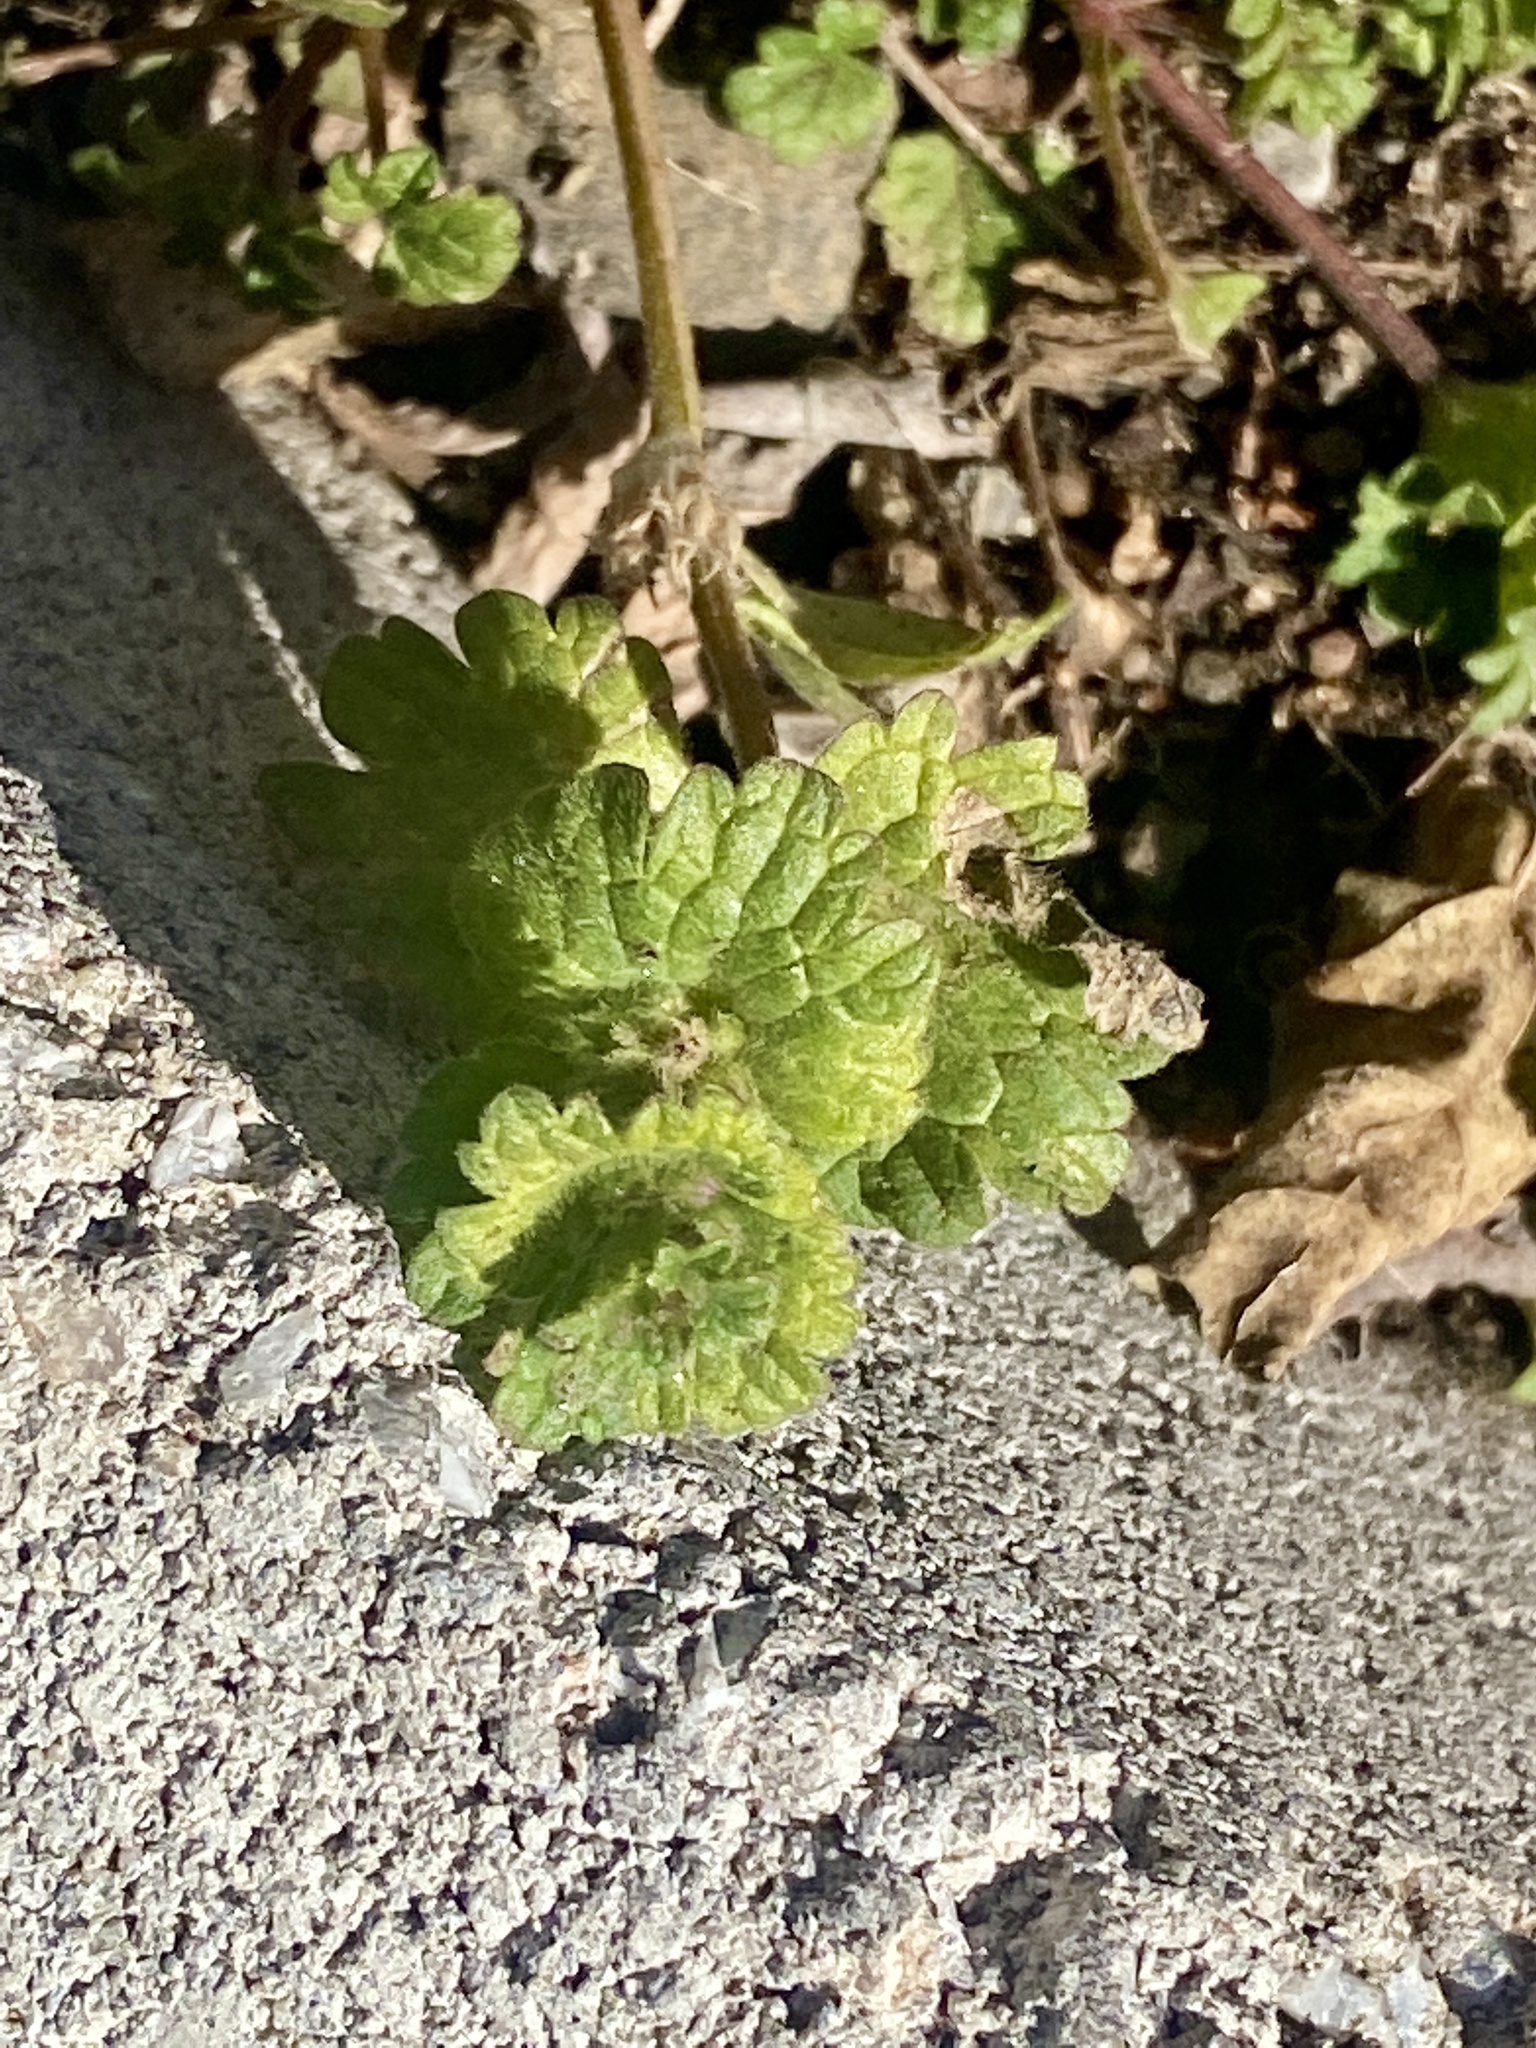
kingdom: Plantae
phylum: Tracheophyta
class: Magnoliopsida
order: Lamiales
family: Lamiaceae
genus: Lamium
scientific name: Lamium amplexicaule
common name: Henbit dead-nettle
